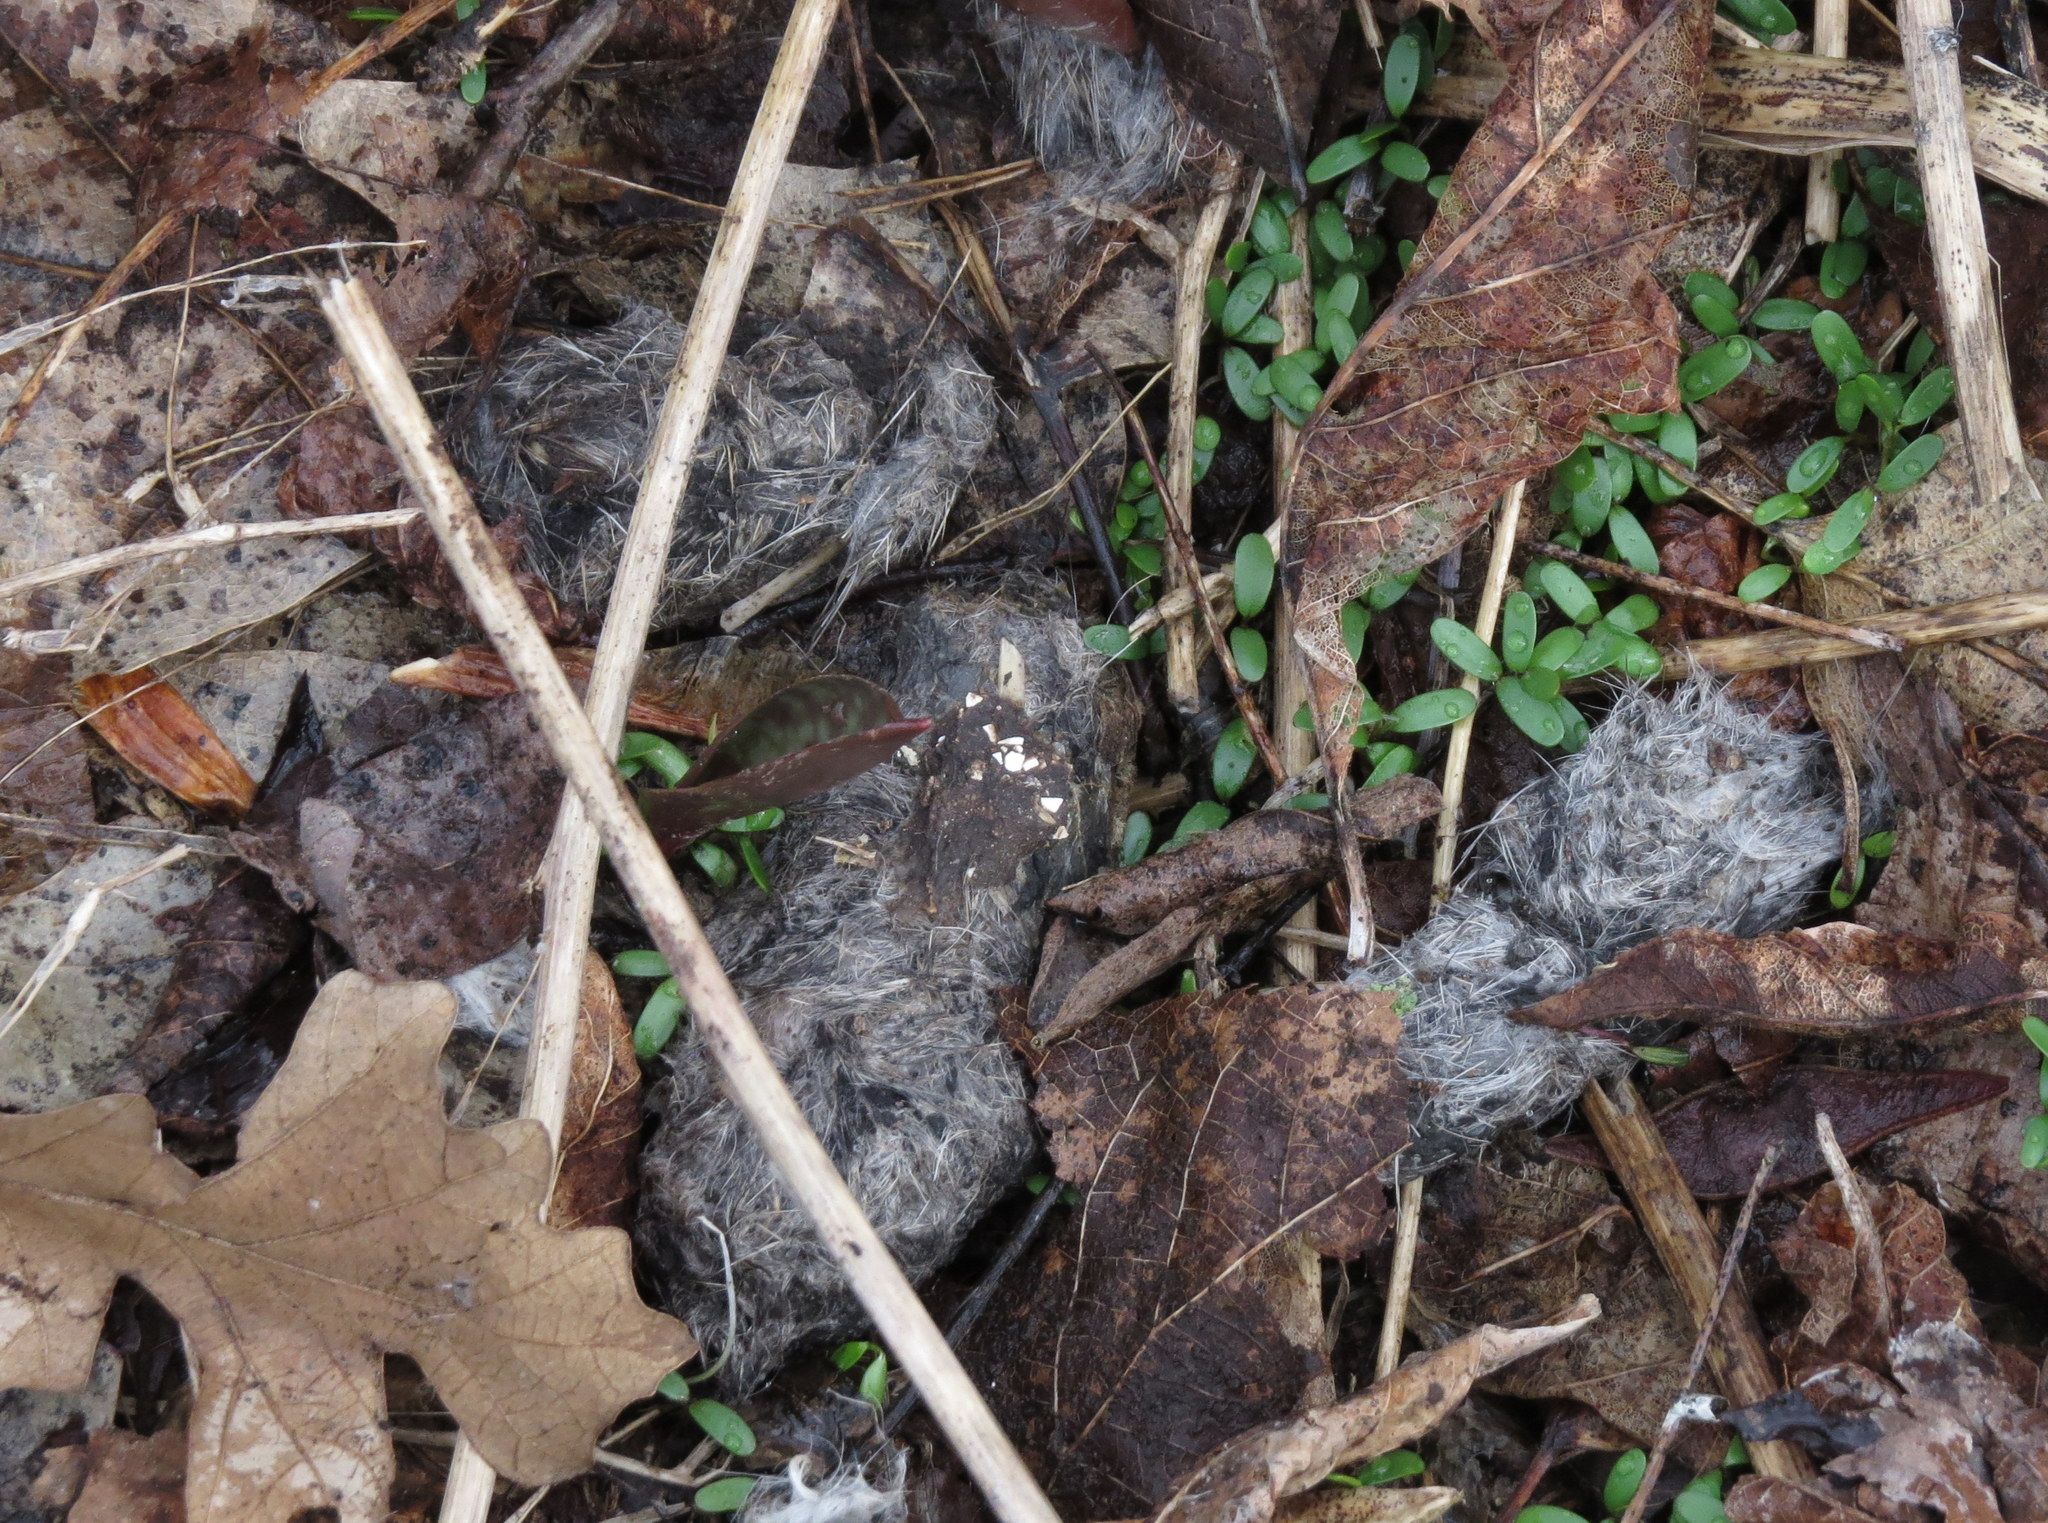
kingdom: Animalia
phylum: Chordata
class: Mammalia
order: Carnivora
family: Canidae
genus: Canis
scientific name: Canis latrans
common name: Coyote
